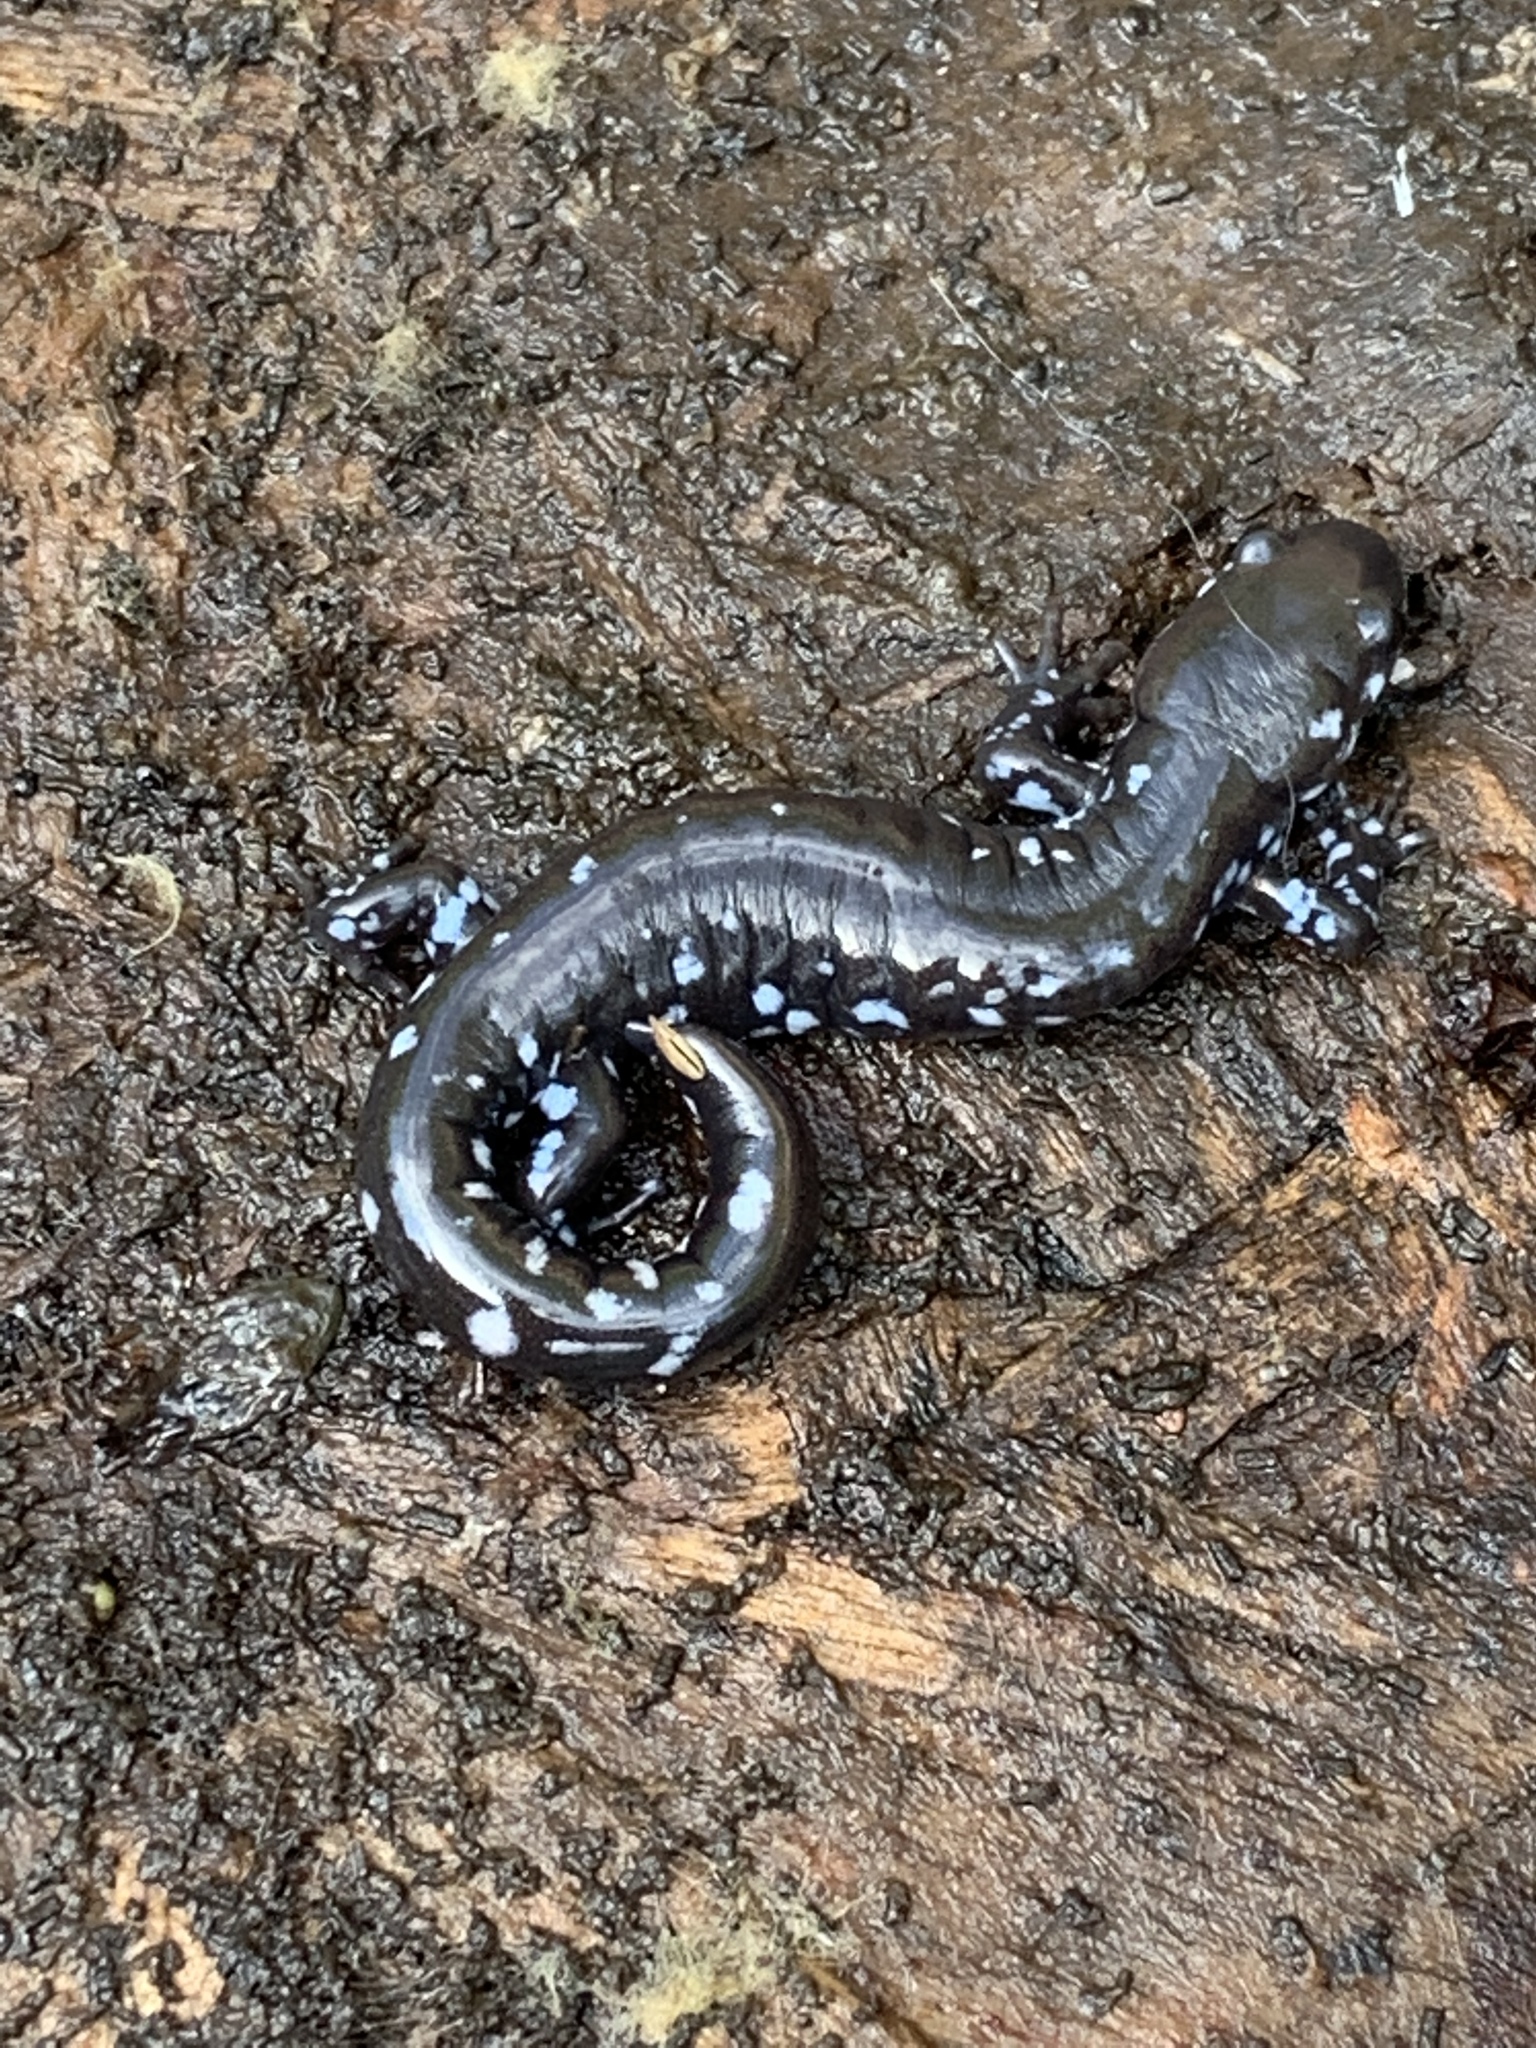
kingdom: Animalia
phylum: Chordata
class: Amphibia
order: Caudata
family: Ambystomatidae
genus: Ambystoma
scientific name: Ambystoma laterale
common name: Blue-spotted salamander
